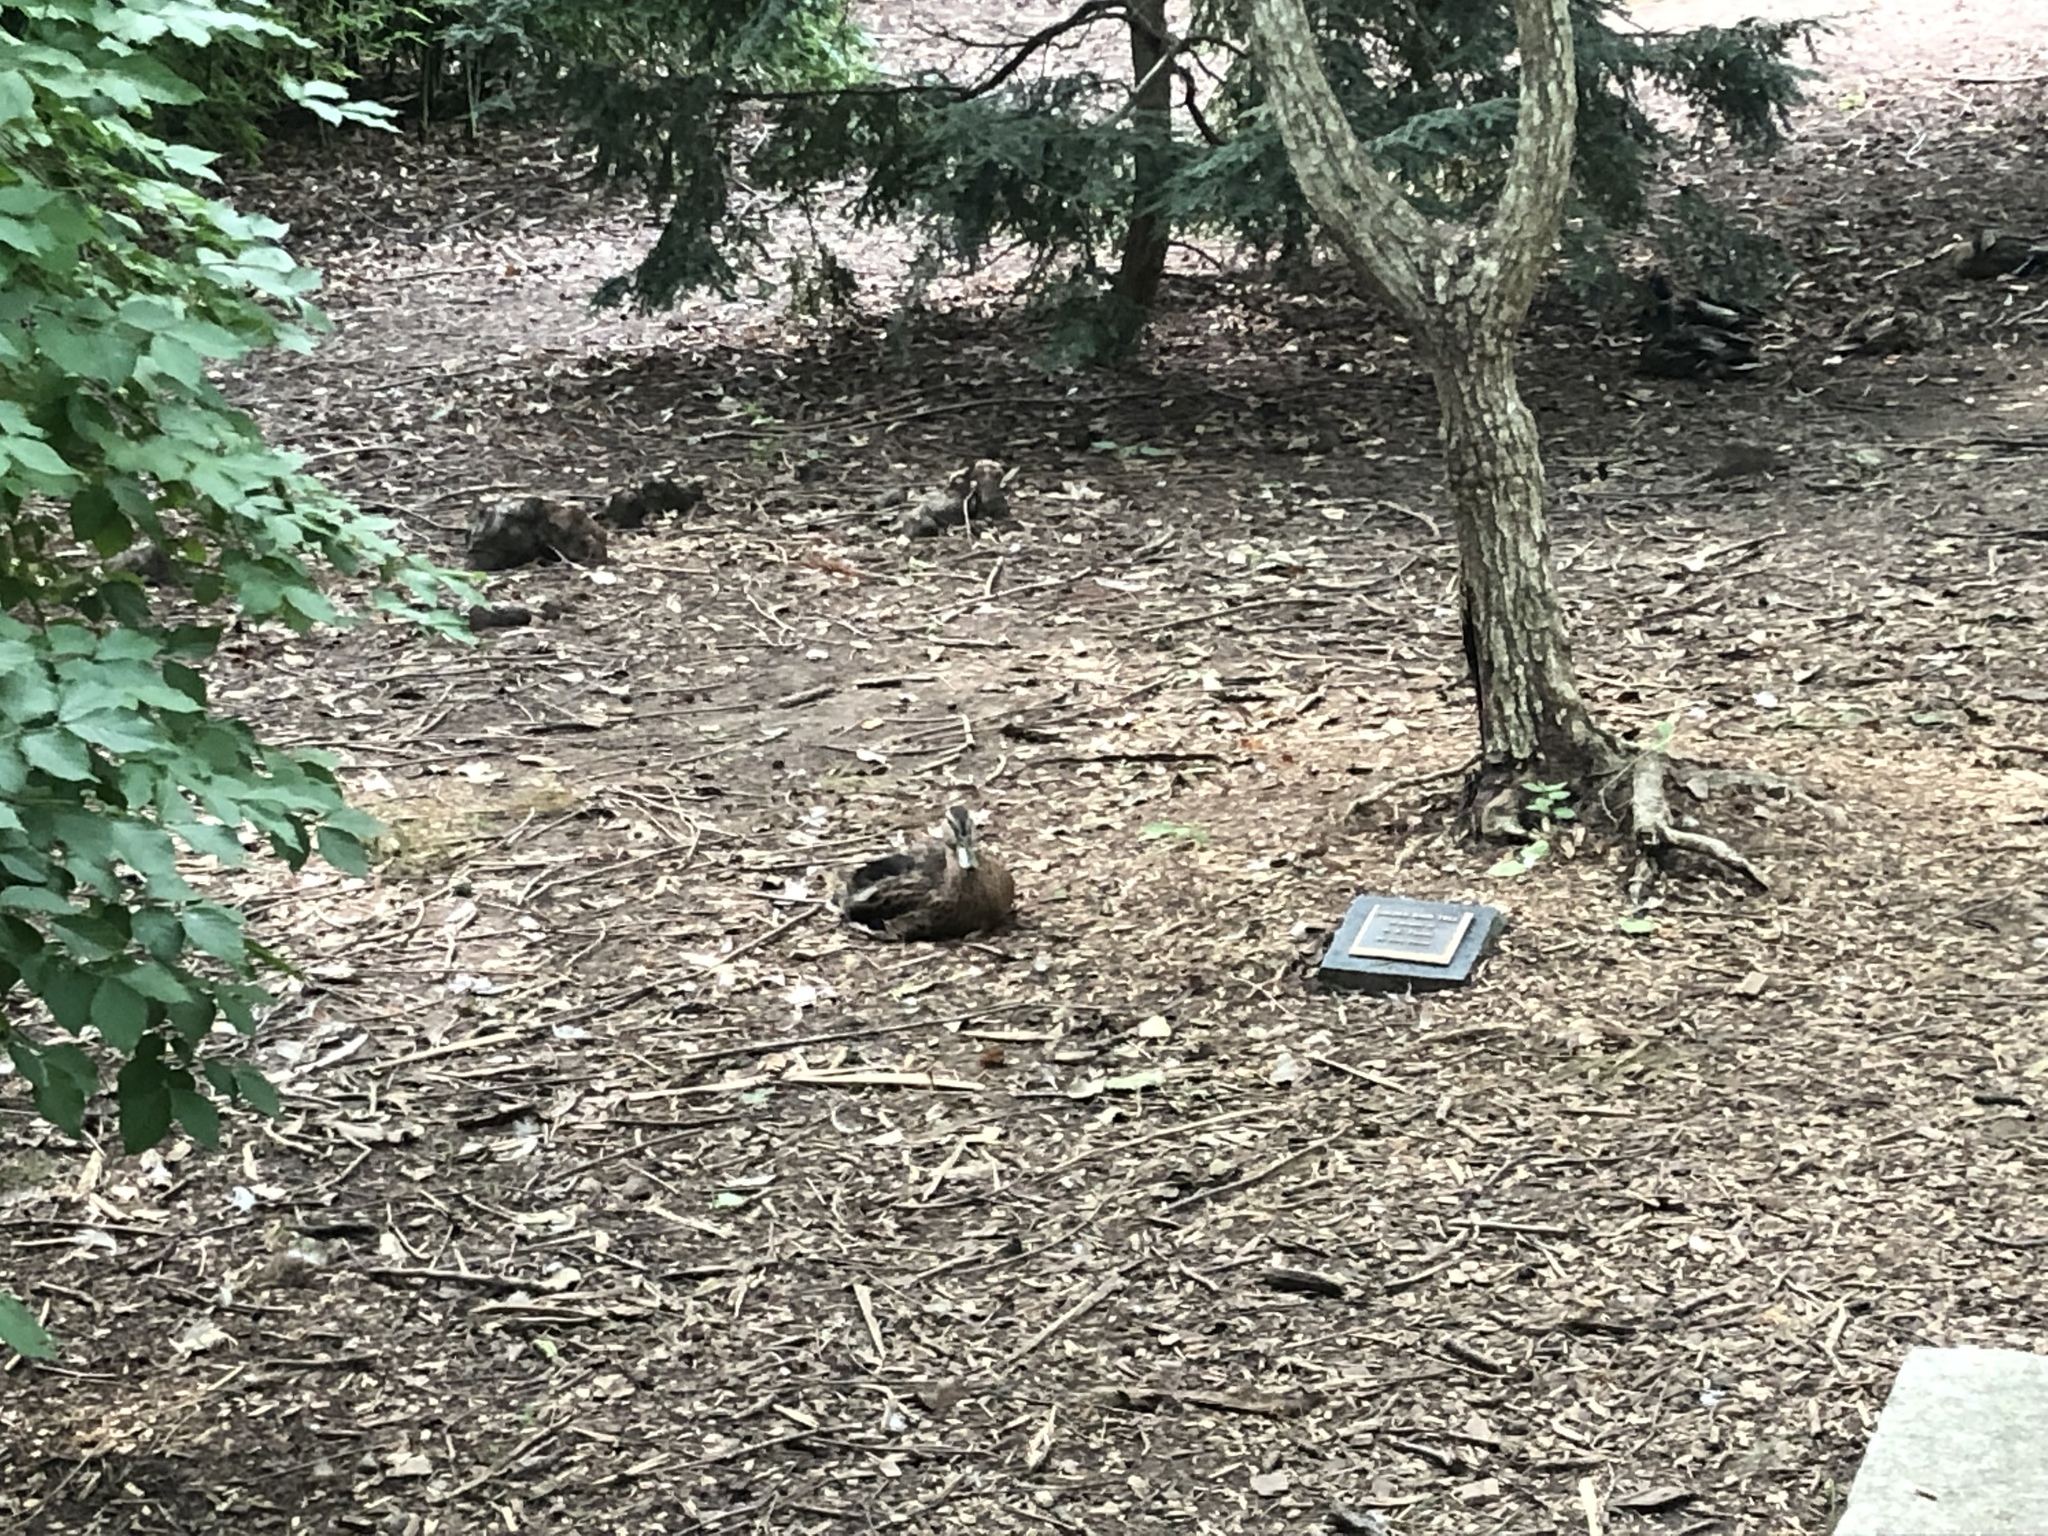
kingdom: Animalia
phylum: Chordata
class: Aves
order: Anseriformes
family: Anatidae
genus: Anas
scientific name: Anas platyrhynchos
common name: Mallard
